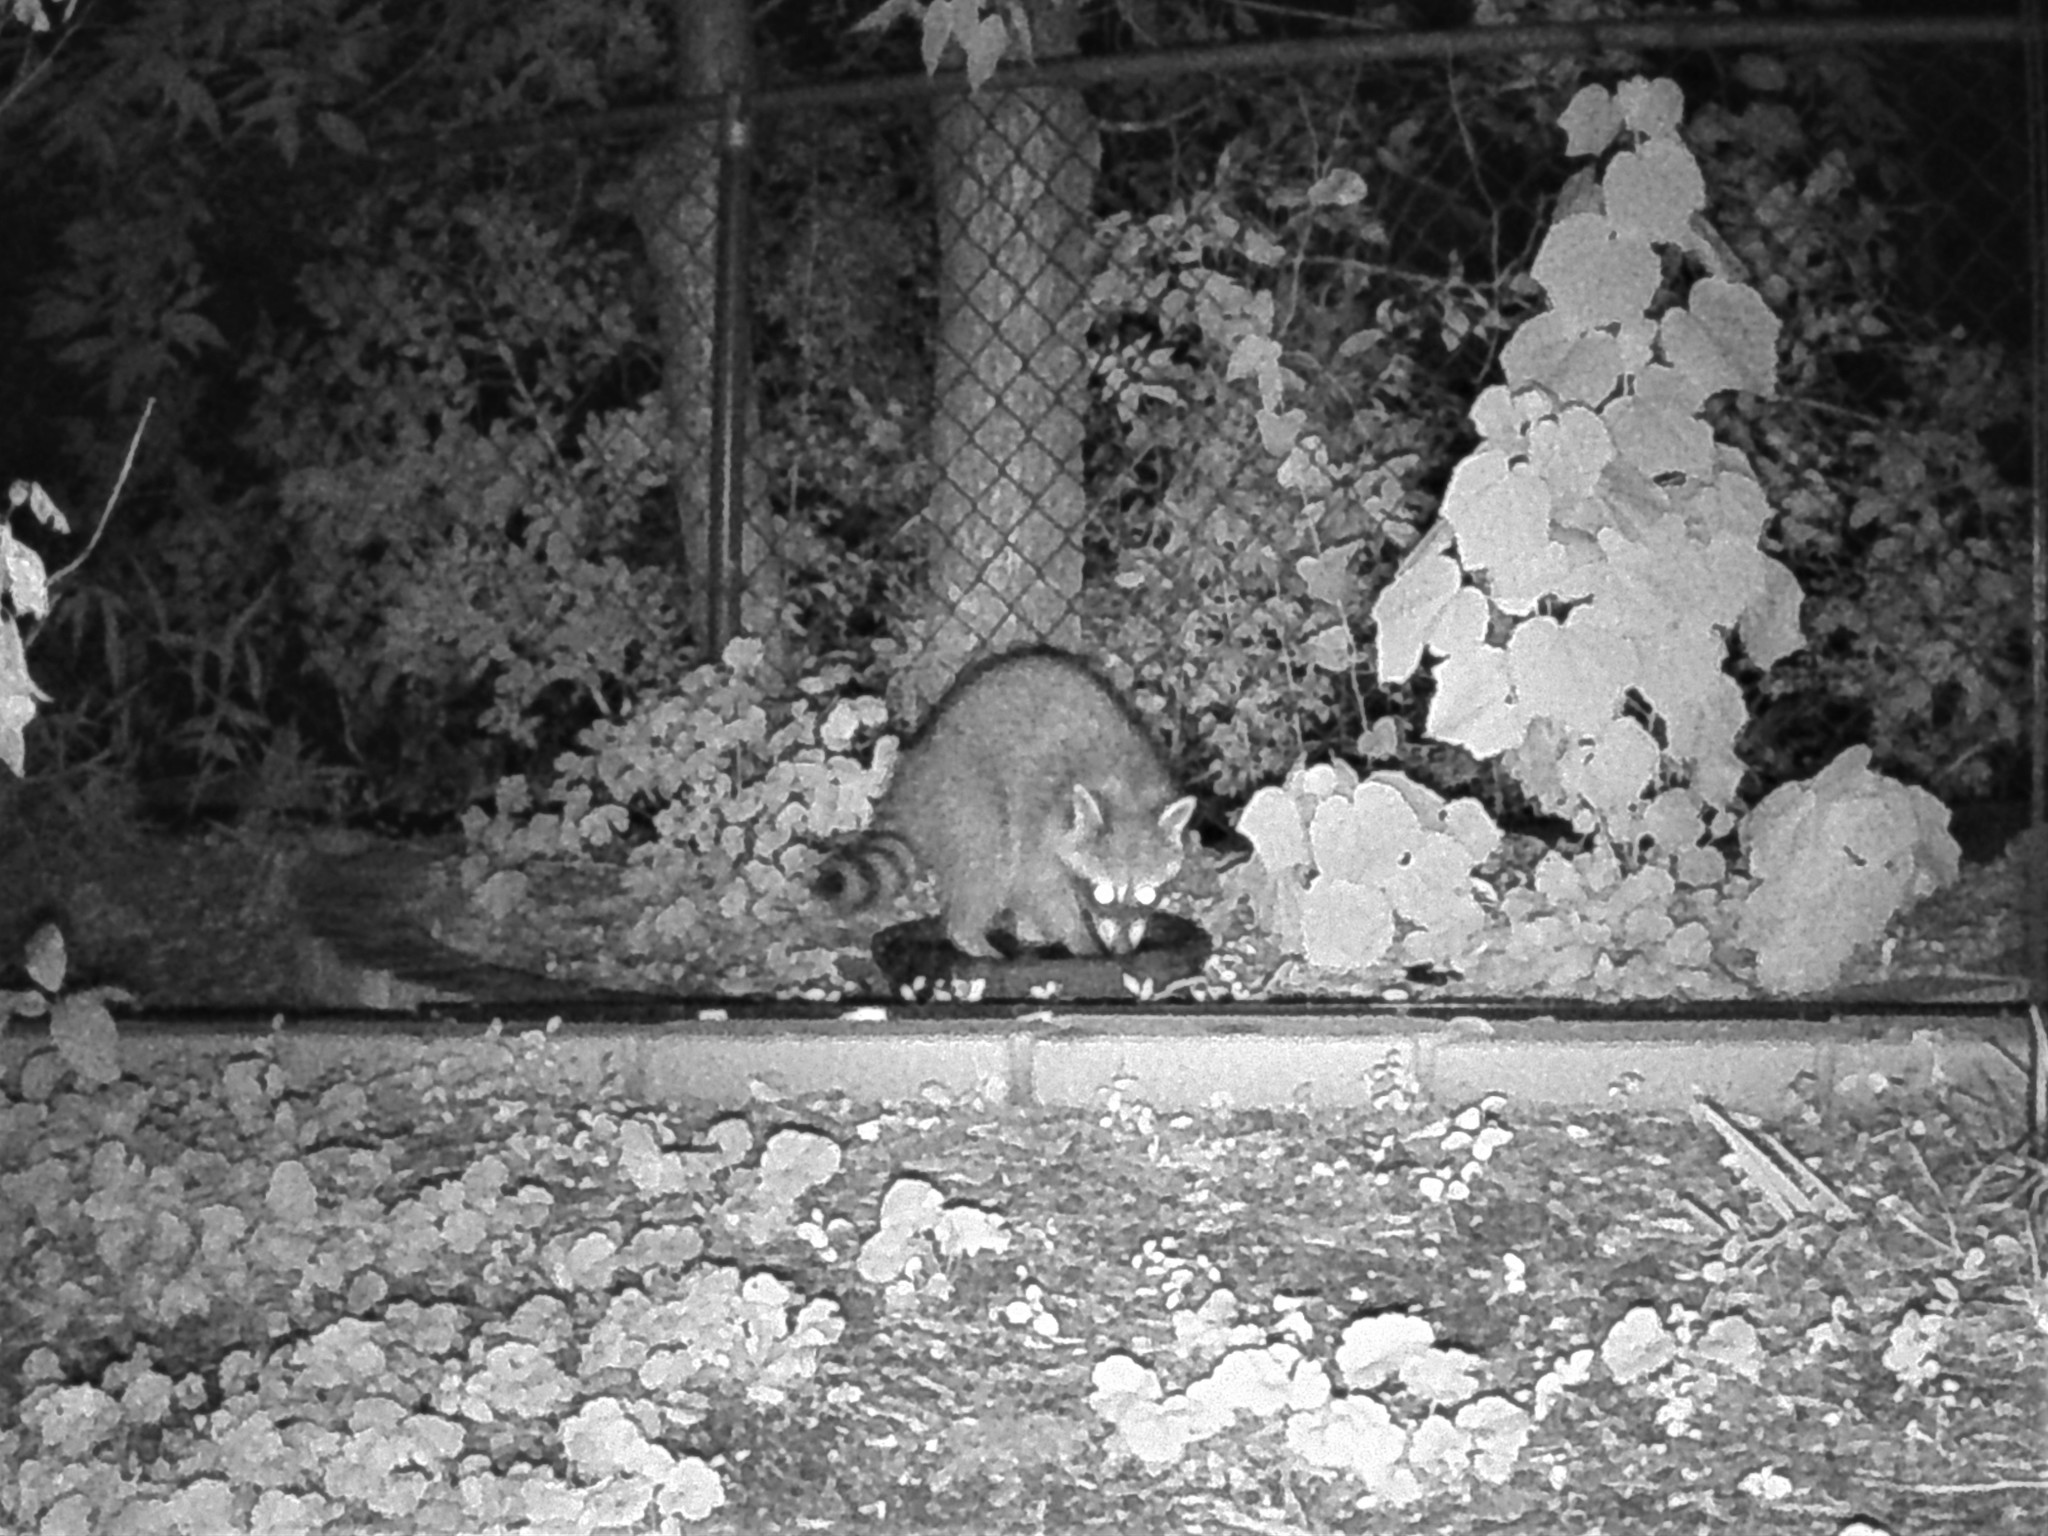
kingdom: Animalia
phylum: Chordata
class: Mammalia
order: Carnivora
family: Procyonidae
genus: Procyon
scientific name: Procyon lotor
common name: Raccoon
